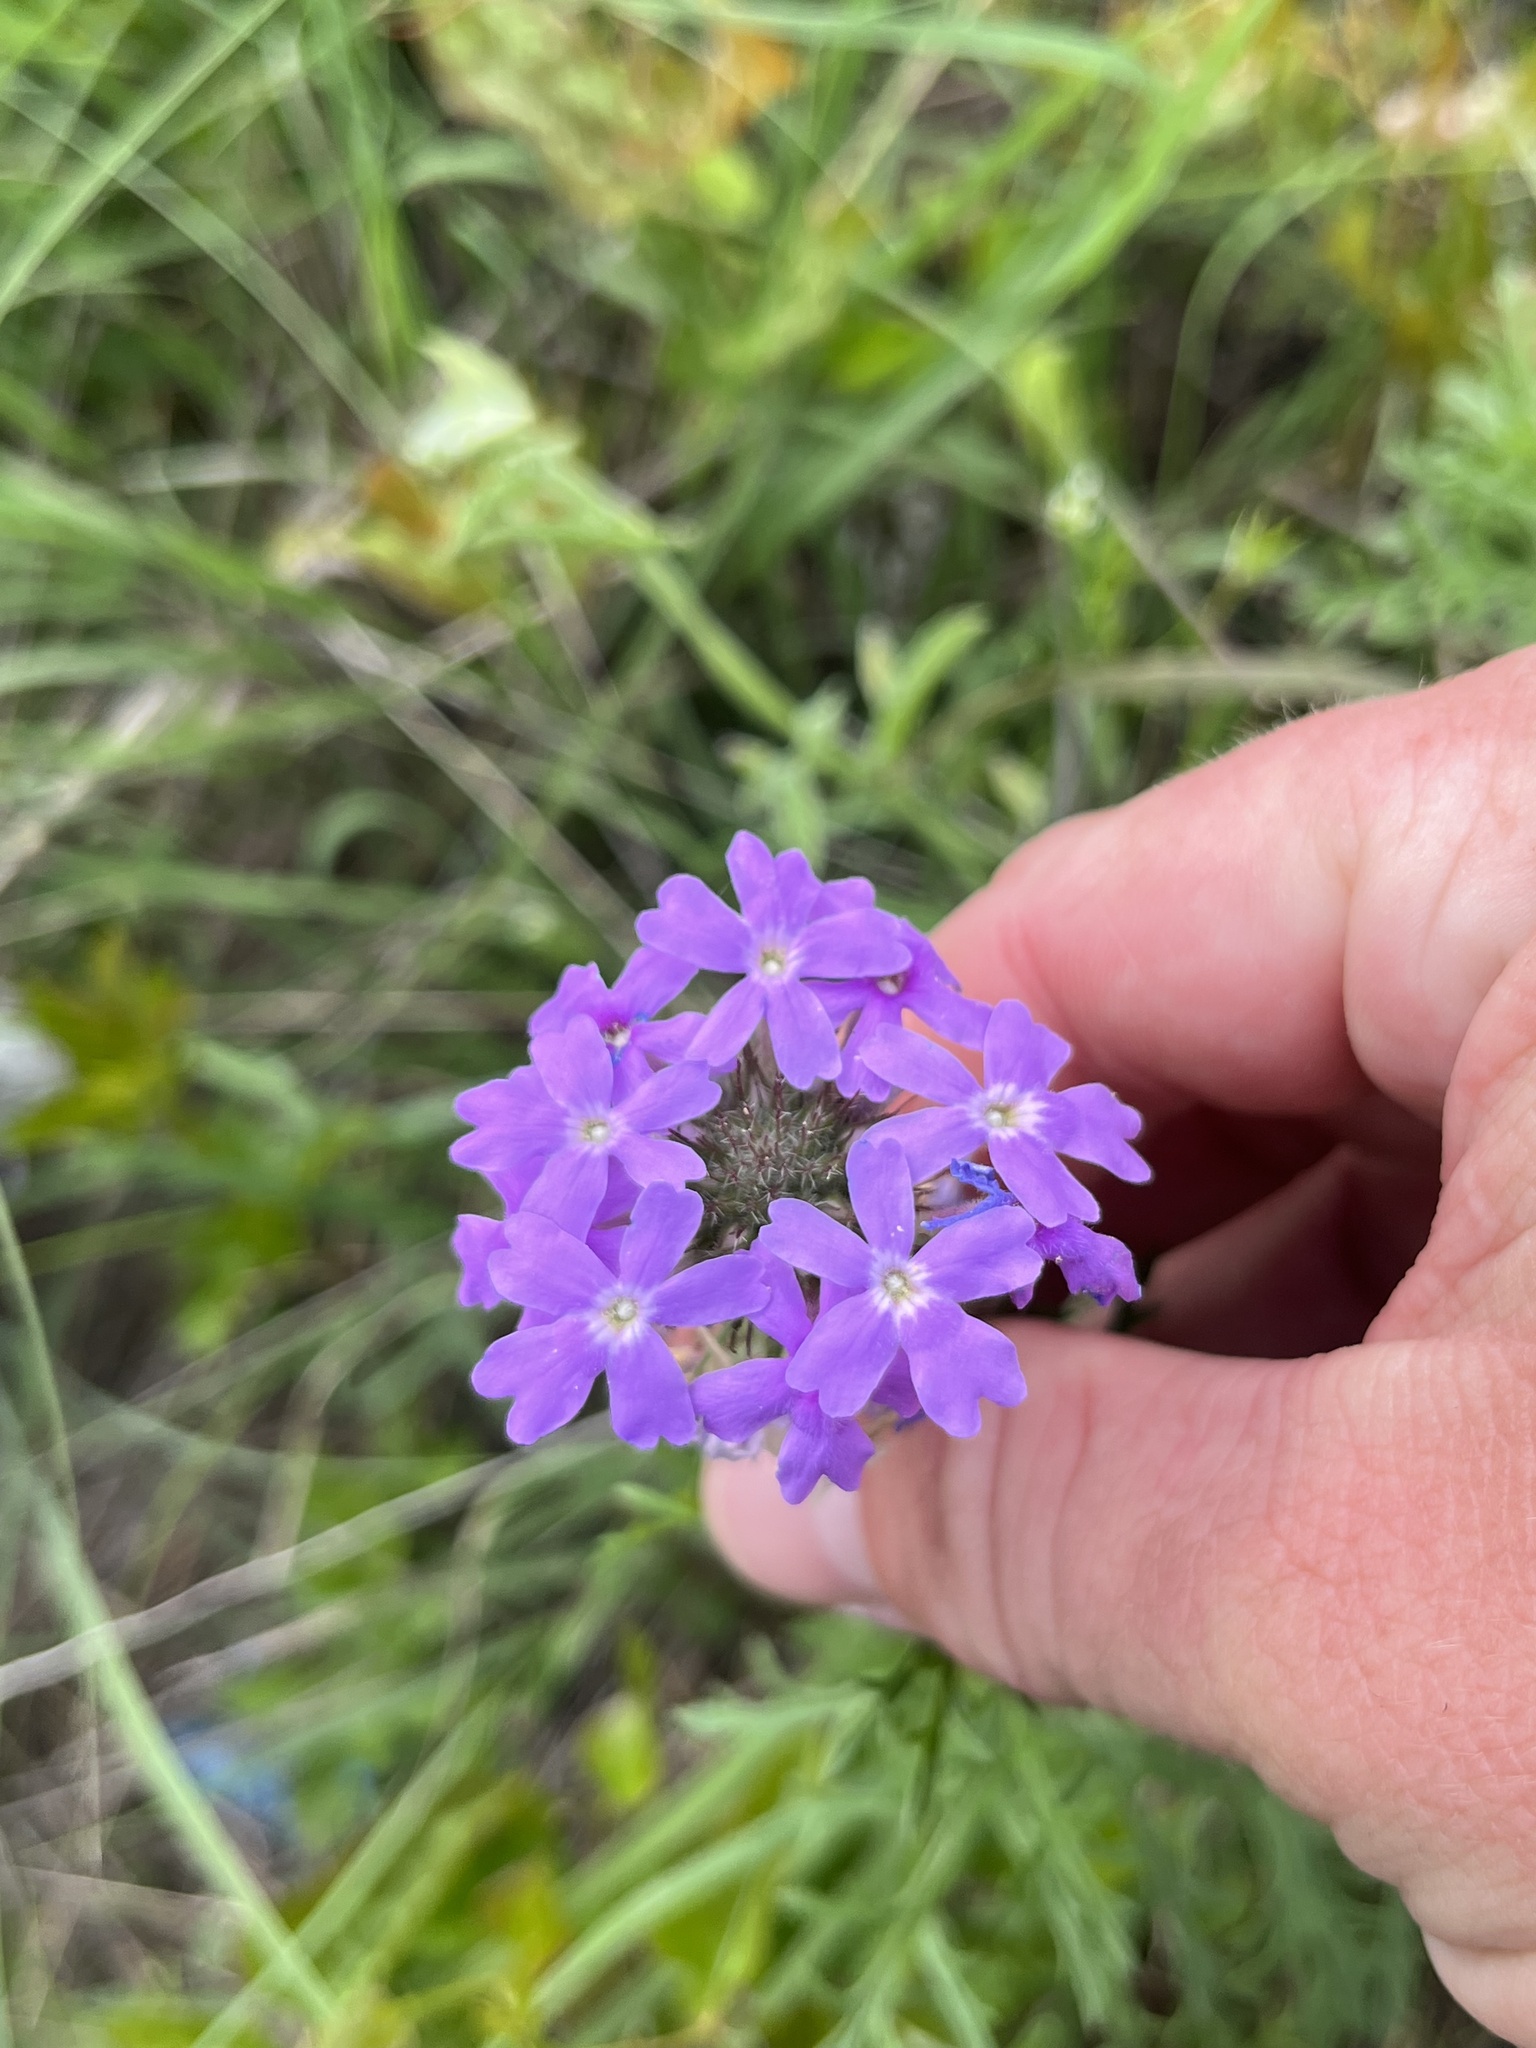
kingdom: Plantae
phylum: Tracheophyta
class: Magnoliopsida
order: Lamiales
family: Verbenaceae
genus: Verbena
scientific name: Verbena bipinnatifida
